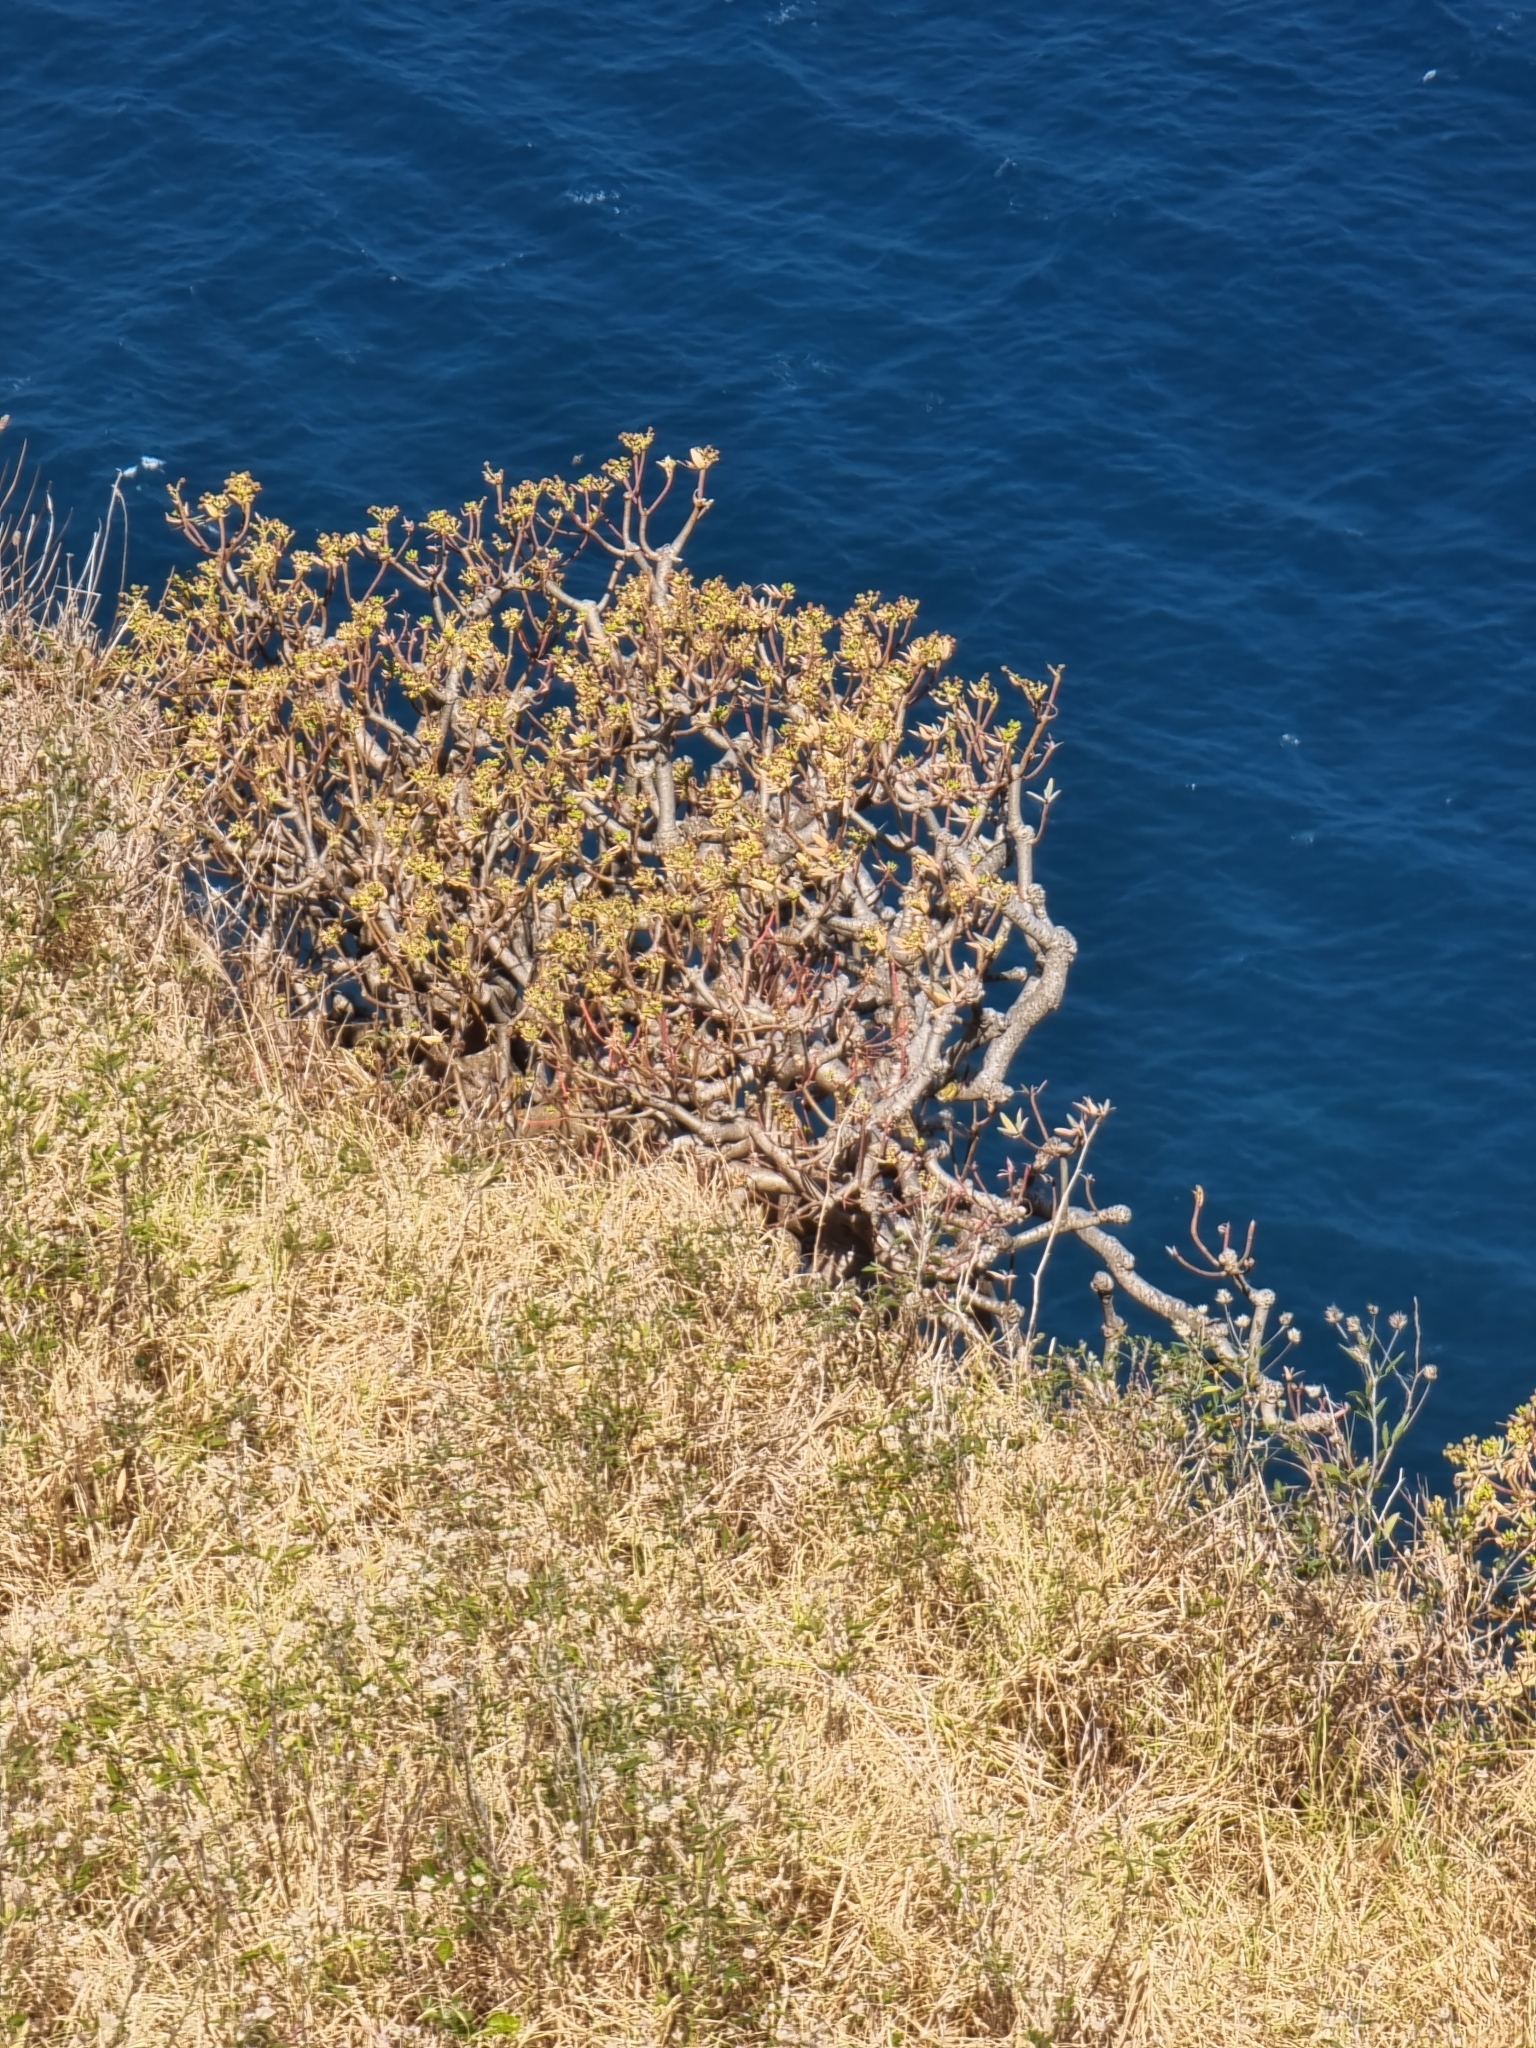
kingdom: Plantae
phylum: Tracheophyta
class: Magnoliopsida
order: Malpighiales
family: Euphorbiaceae
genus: Euphorbia
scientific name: Euphorbia piscatoria
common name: Fish-stunning spurge
